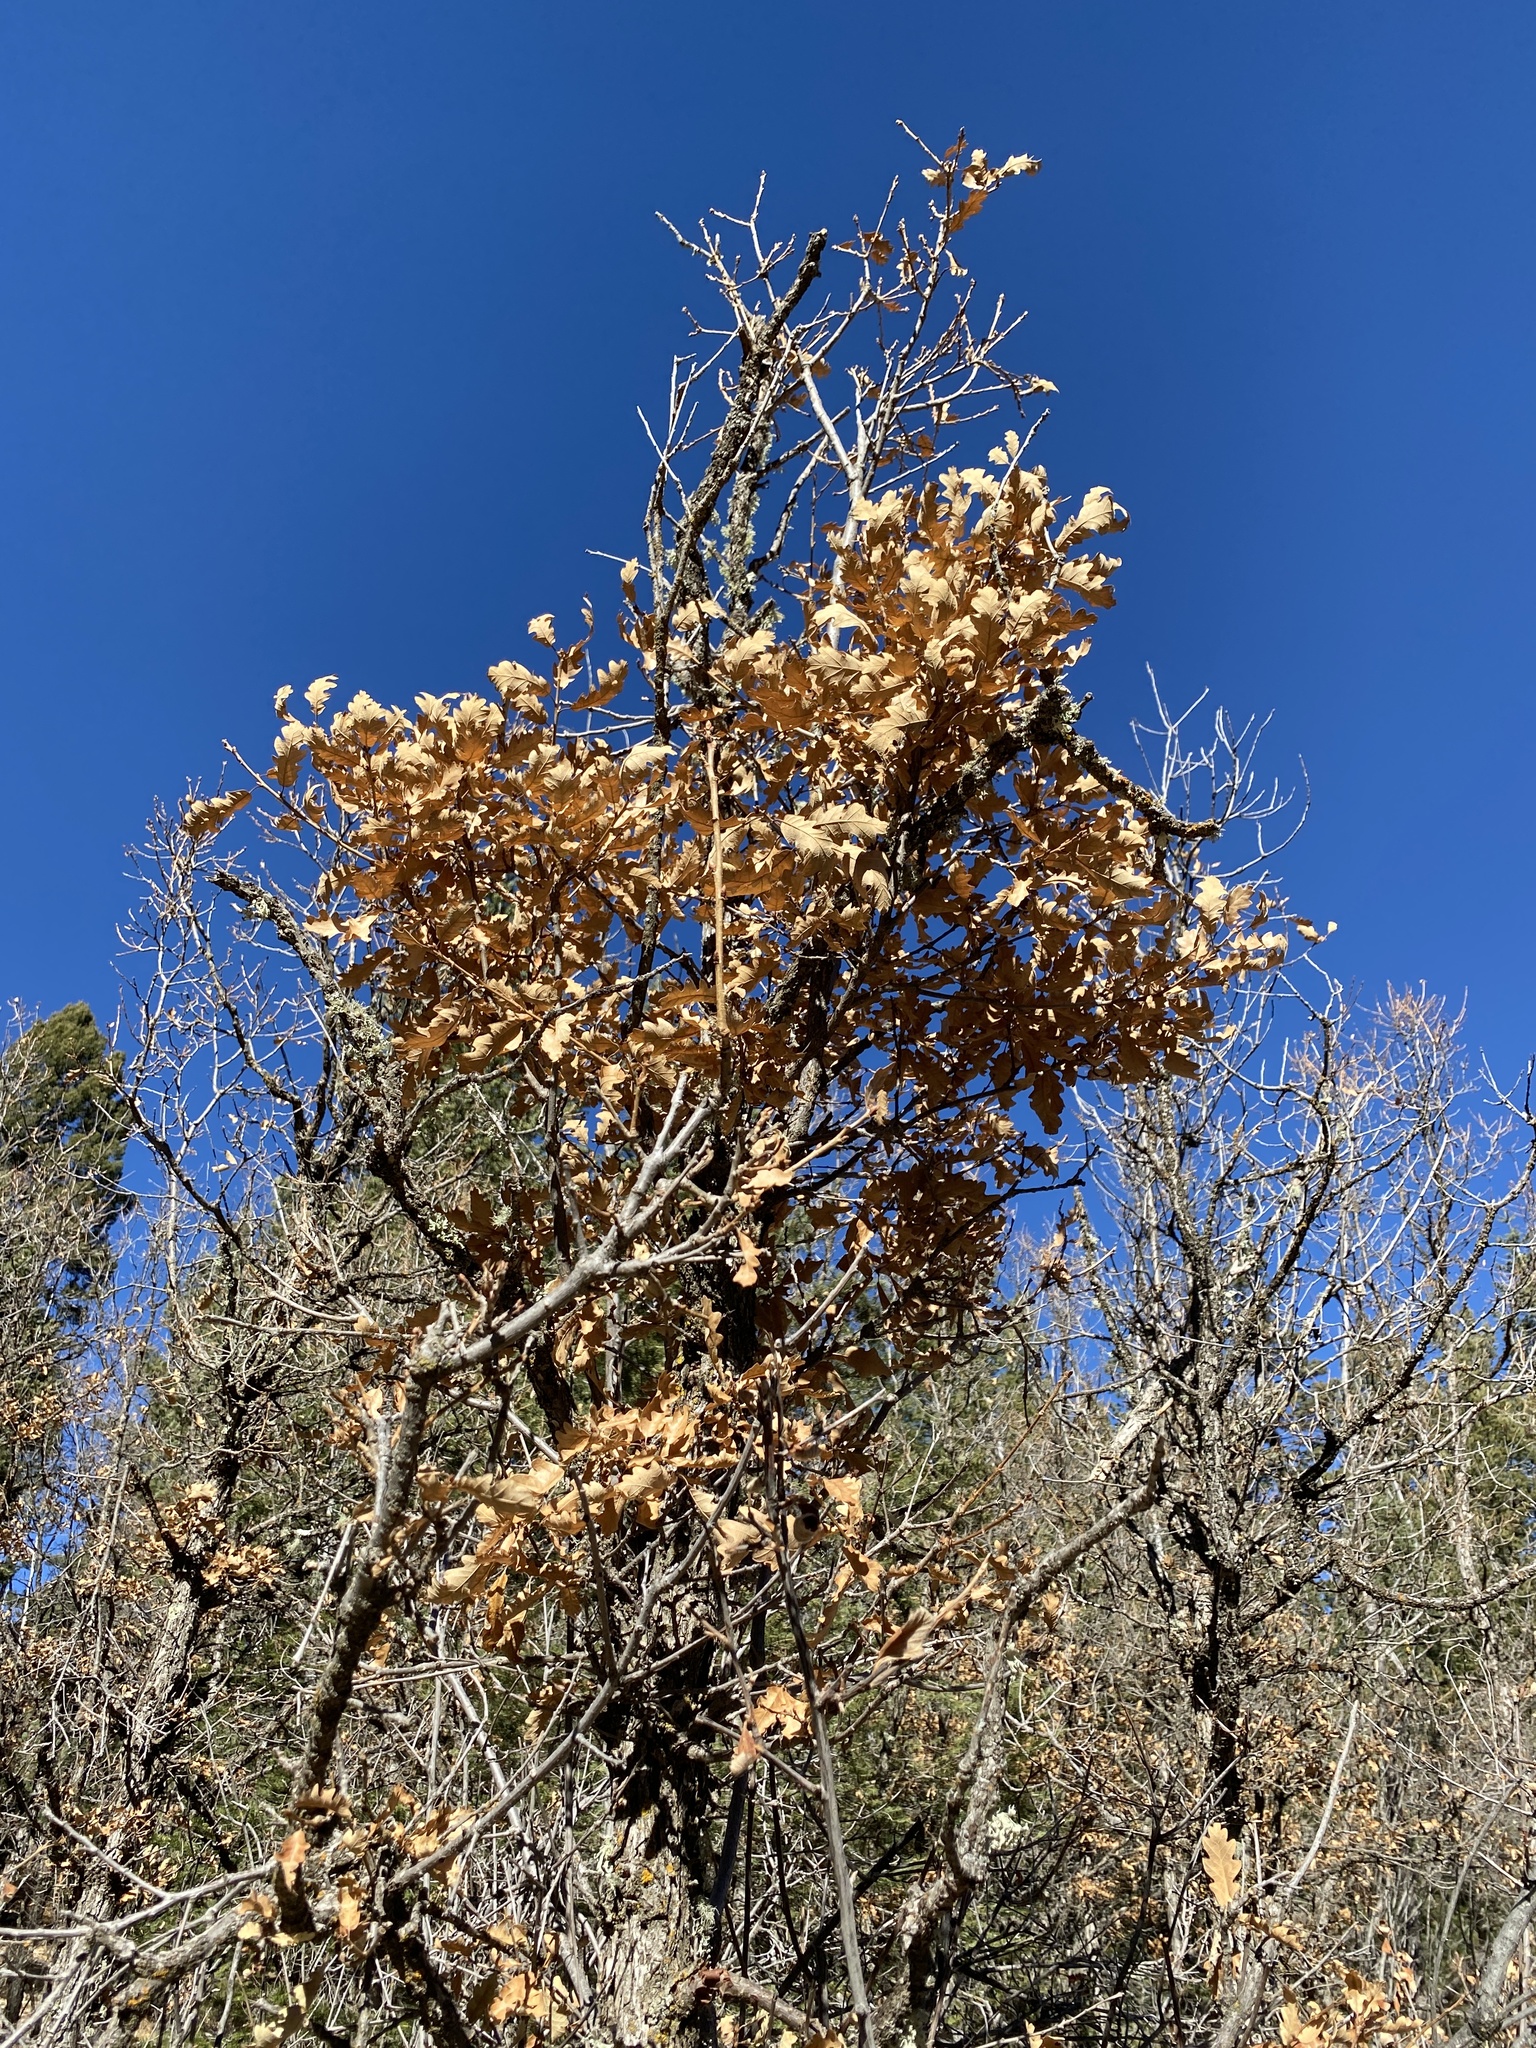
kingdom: Plantae
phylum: Tracheophyta
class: Magnoliopsida
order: Fagales
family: Fagaceae
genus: Quercus
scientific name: Quercus gambelii
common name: Gambel oak
